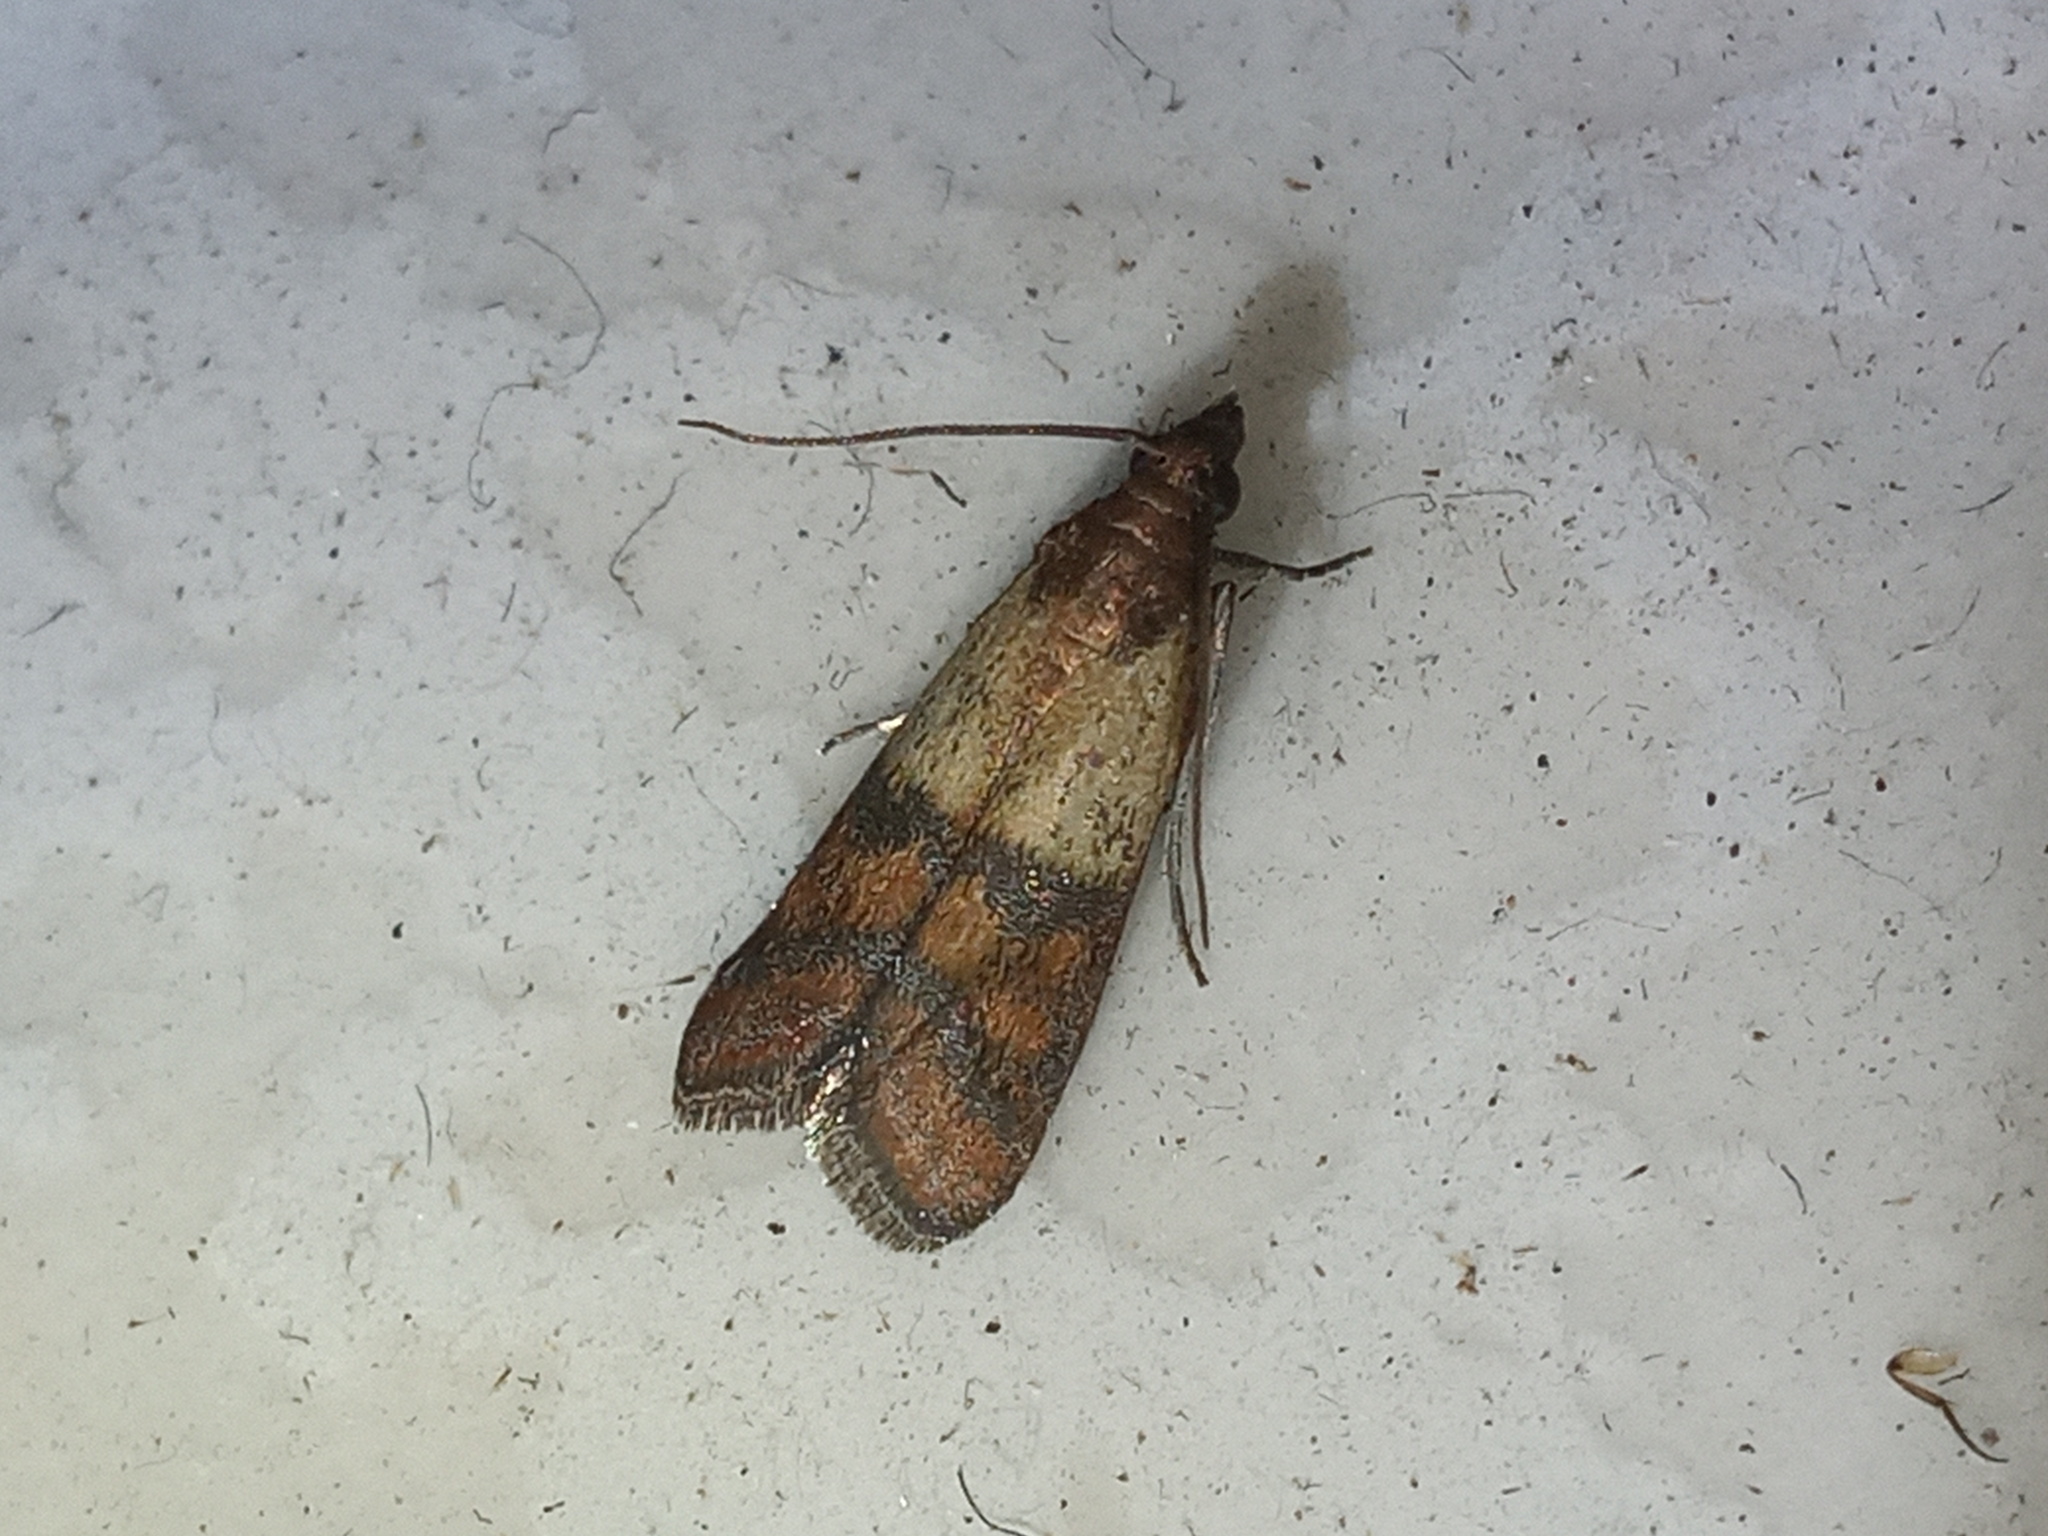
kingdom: Animalia
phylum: Arthropoda
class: Insecta
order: Lepidoptera
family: Pyralidae
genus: Plodia
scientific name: Plodia interpunctella
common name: Indian meal moth
